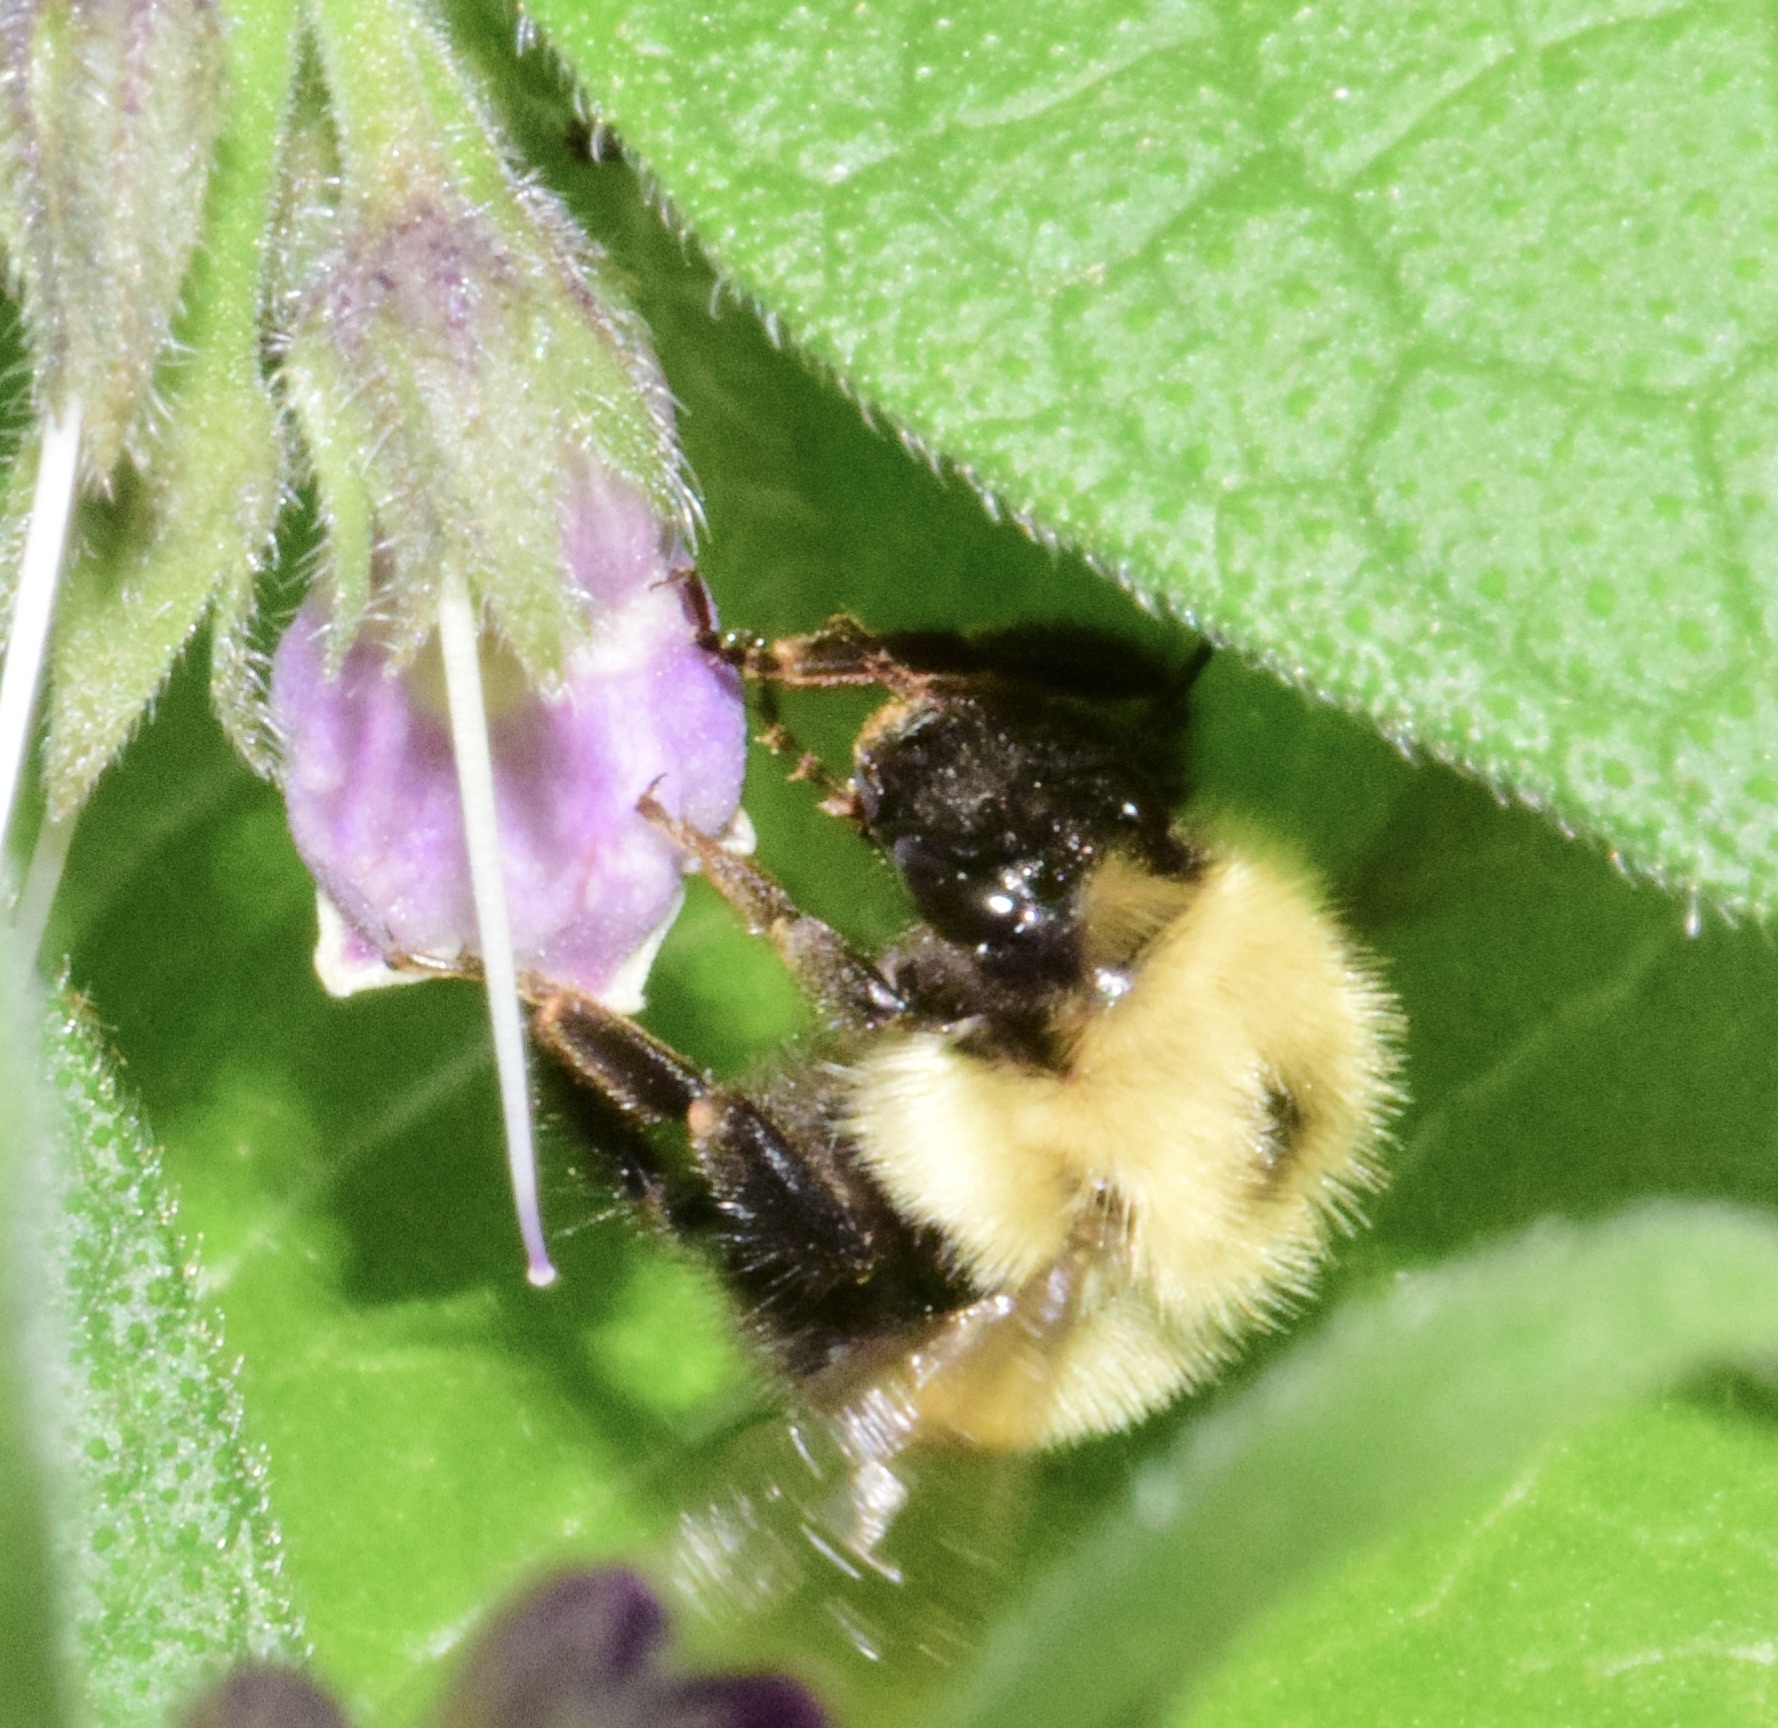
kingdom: Animalia
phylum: Arthropoda
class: Insecta
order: Hymenoptera
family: Apidae
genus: Pyrobombus
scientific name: Pyrobombus
